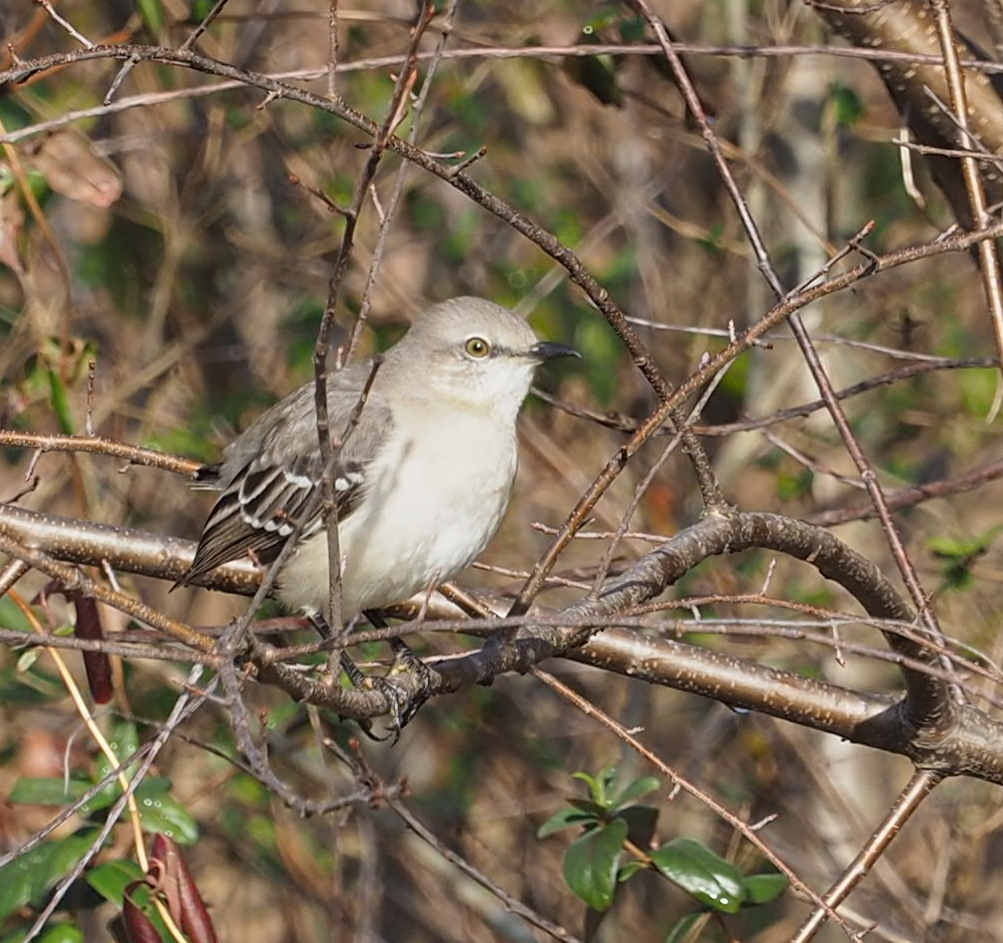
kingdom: Animalia
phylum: Chordata
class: Aves
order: Passeriformes
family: Mimidae
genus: Mimus
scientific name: Mimus polyglottos
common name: Northern mockingbird
